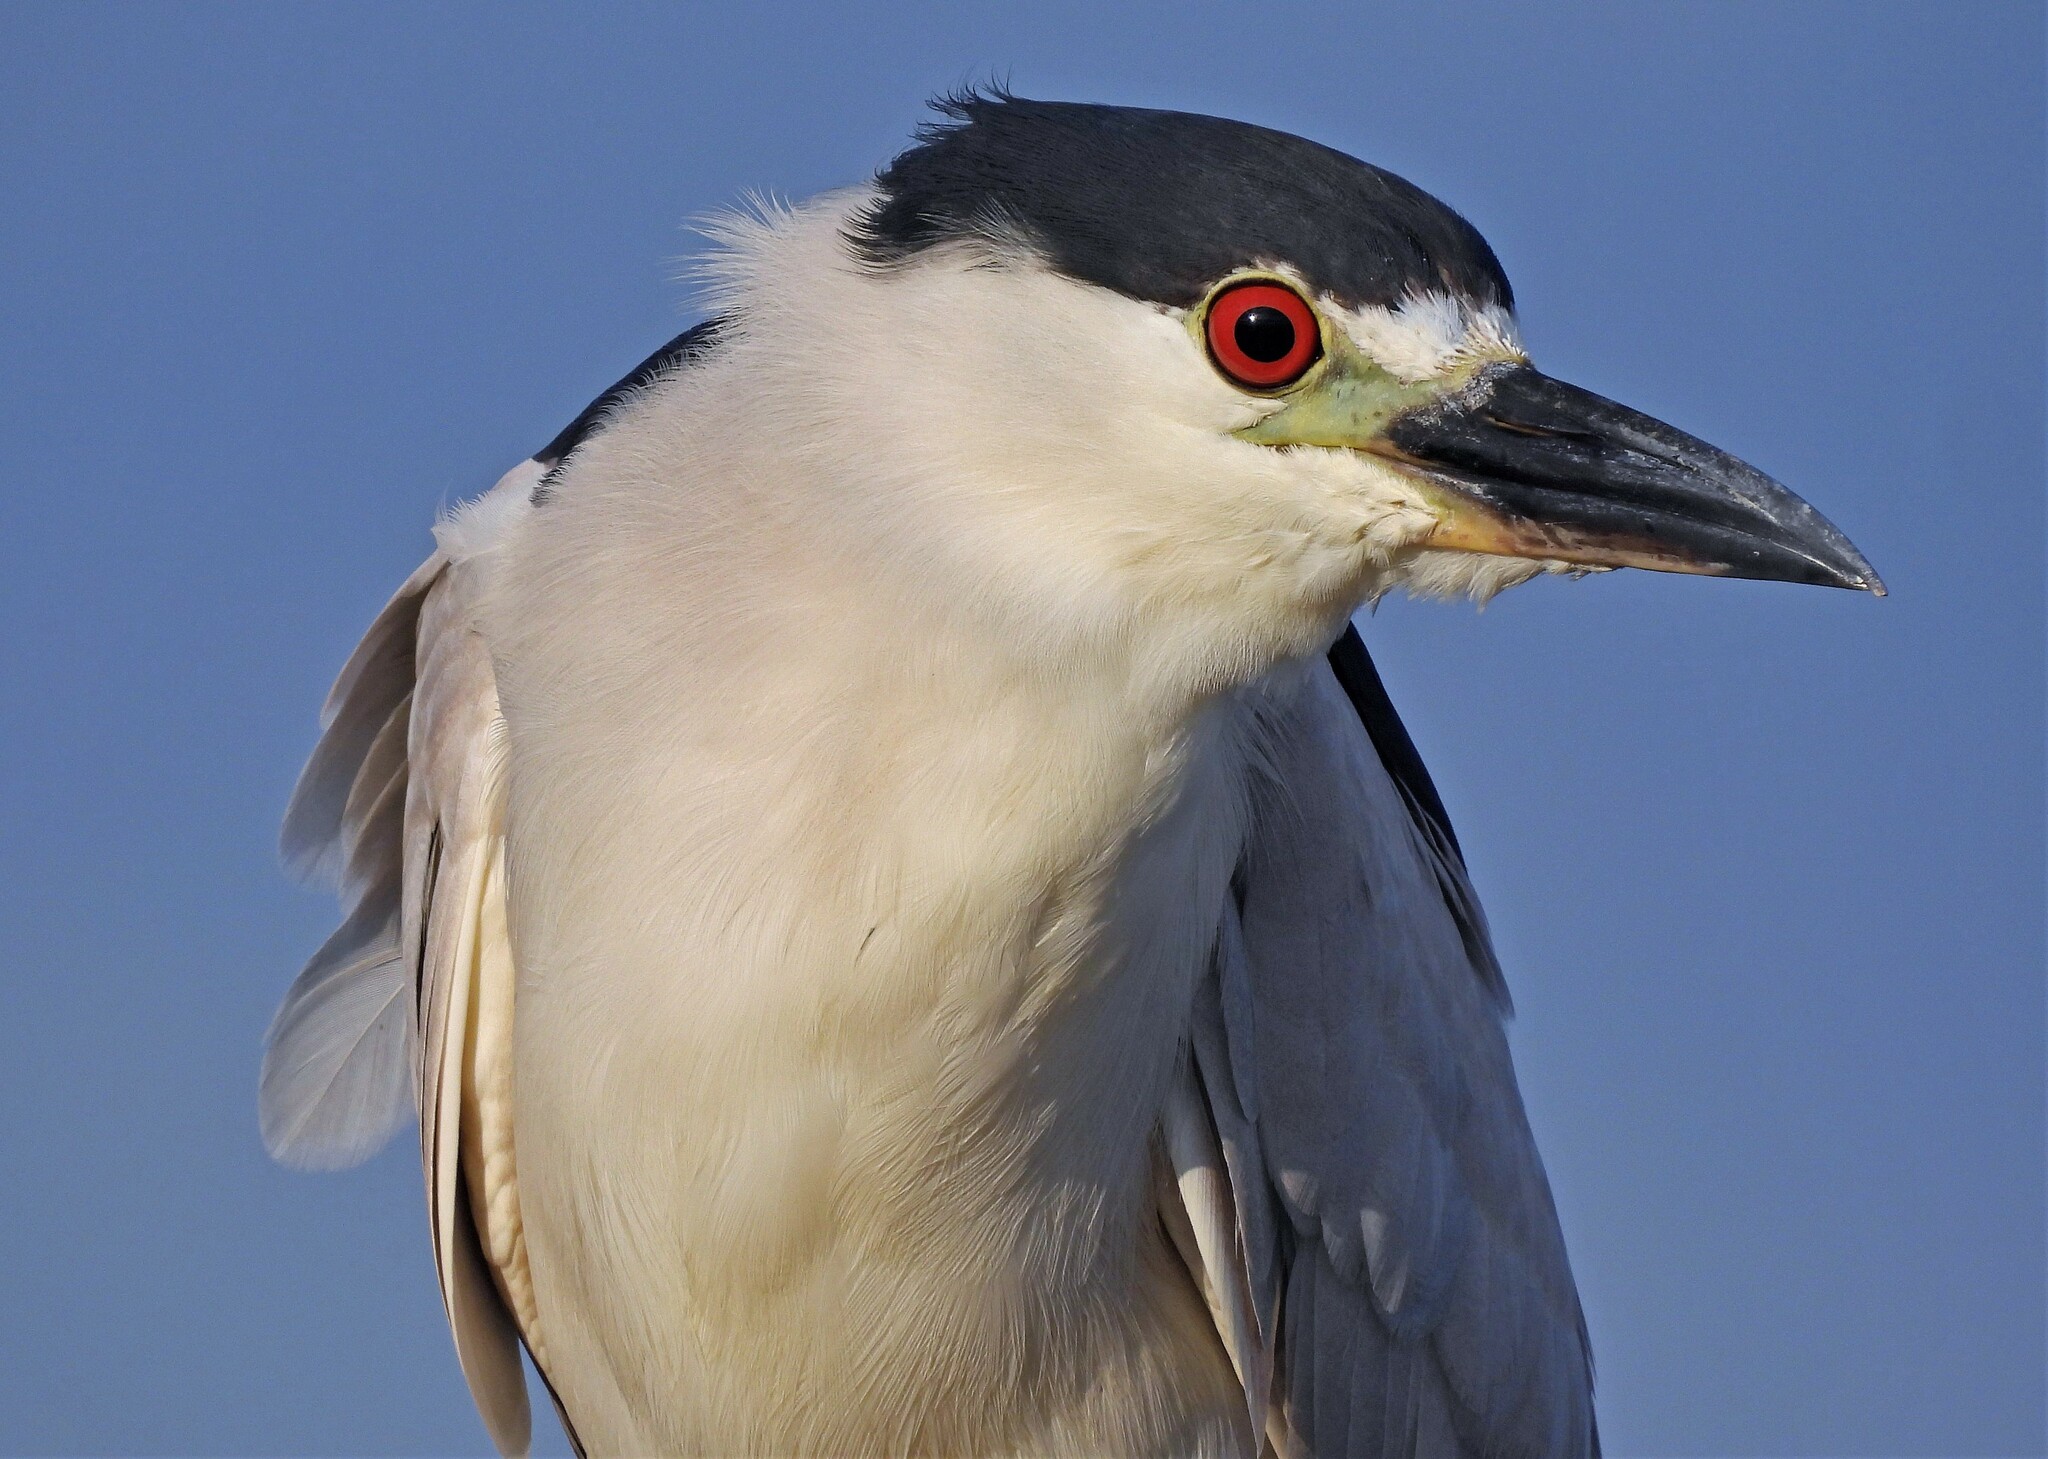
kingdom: Animalia
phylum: Chordata
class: Aves
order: Pelecaniformes
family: Ardeidae
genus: Nycticorax
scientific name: Nycticorax nycticorax
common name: Black-crowned night heron
